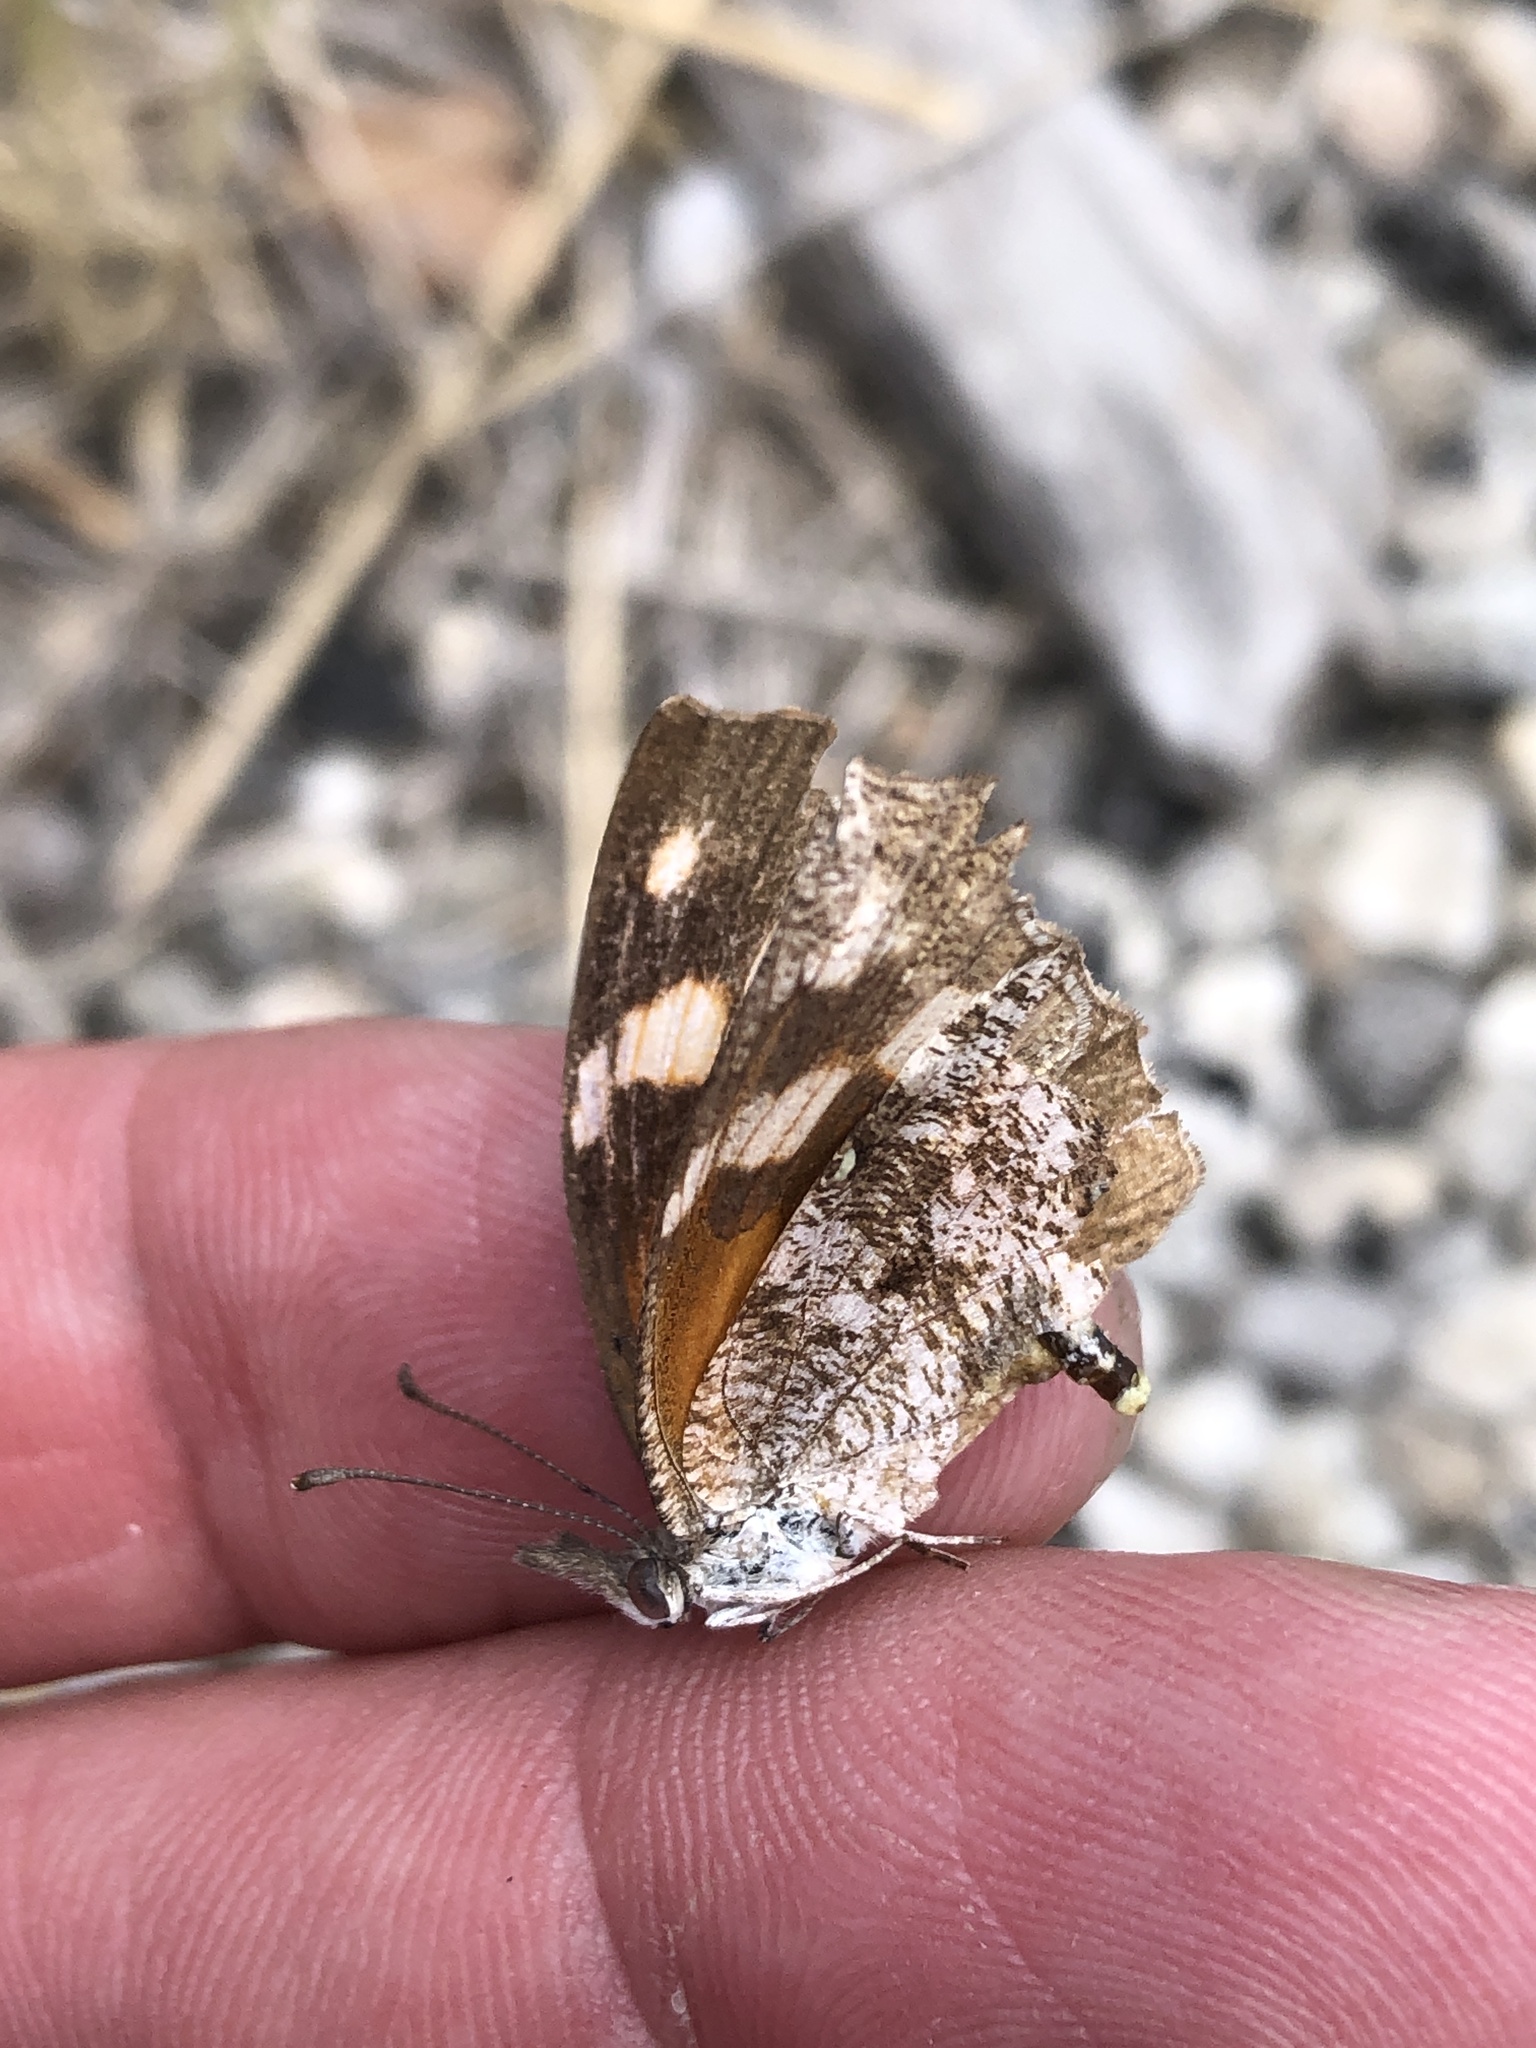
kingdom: Animalia
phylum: Arthropoda
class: Insecta
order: Lepidoptera
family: Nymphalidae
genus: Libytheana
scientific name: Libytheana carinenta
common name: American snout
